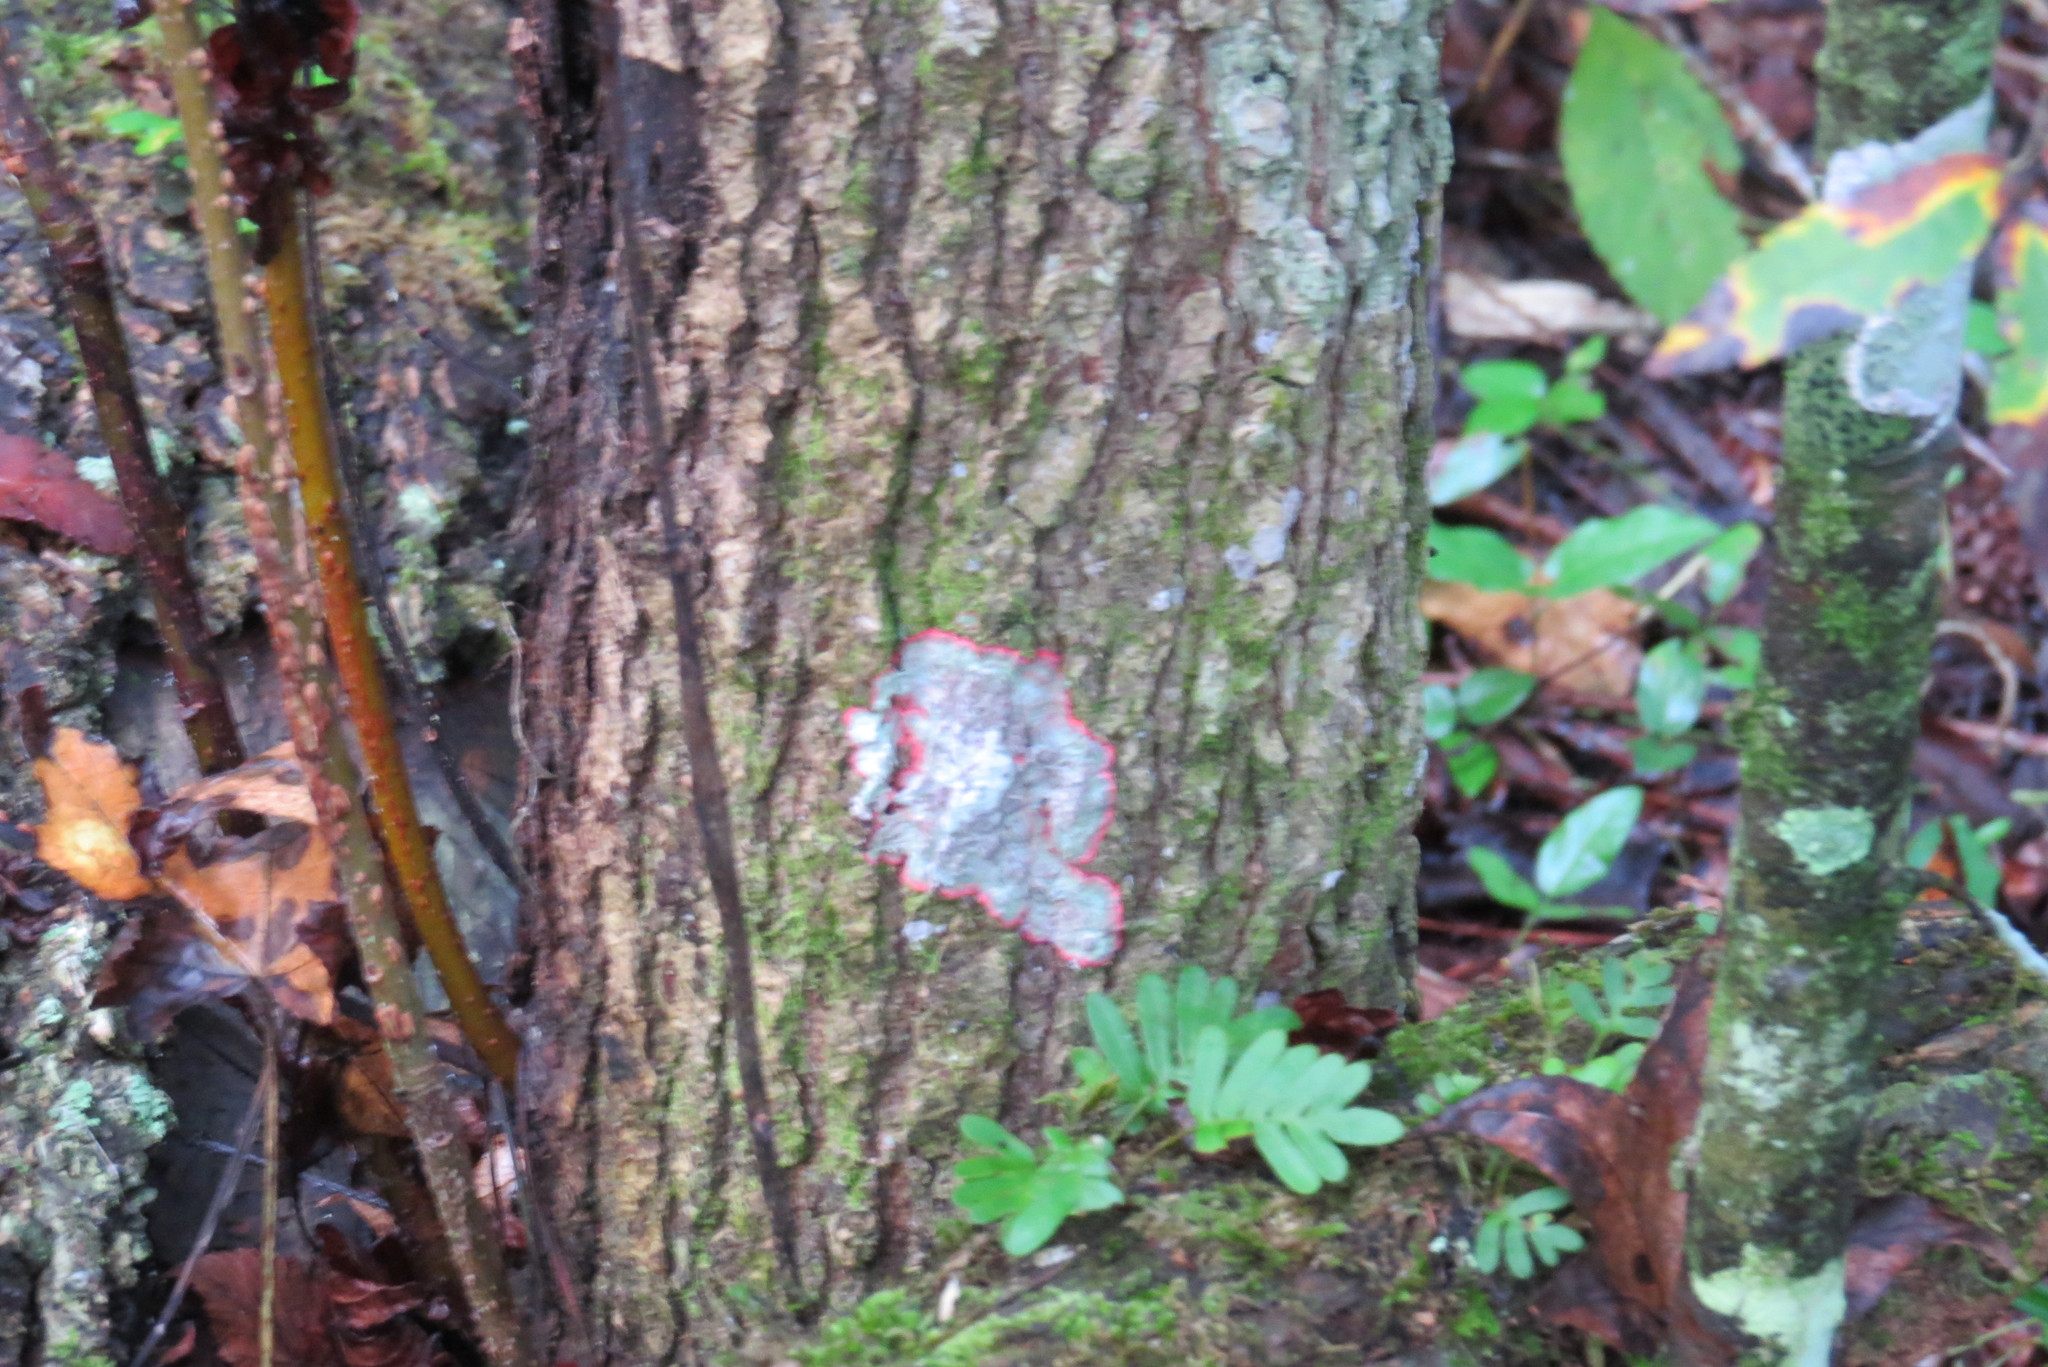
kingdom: Fungi
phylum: Ascomycota
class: Arthoniomycetes
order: Arthoniales
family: Arthoniaceae
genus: Herpothallon
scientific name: Herpothallon rubrocinctum
